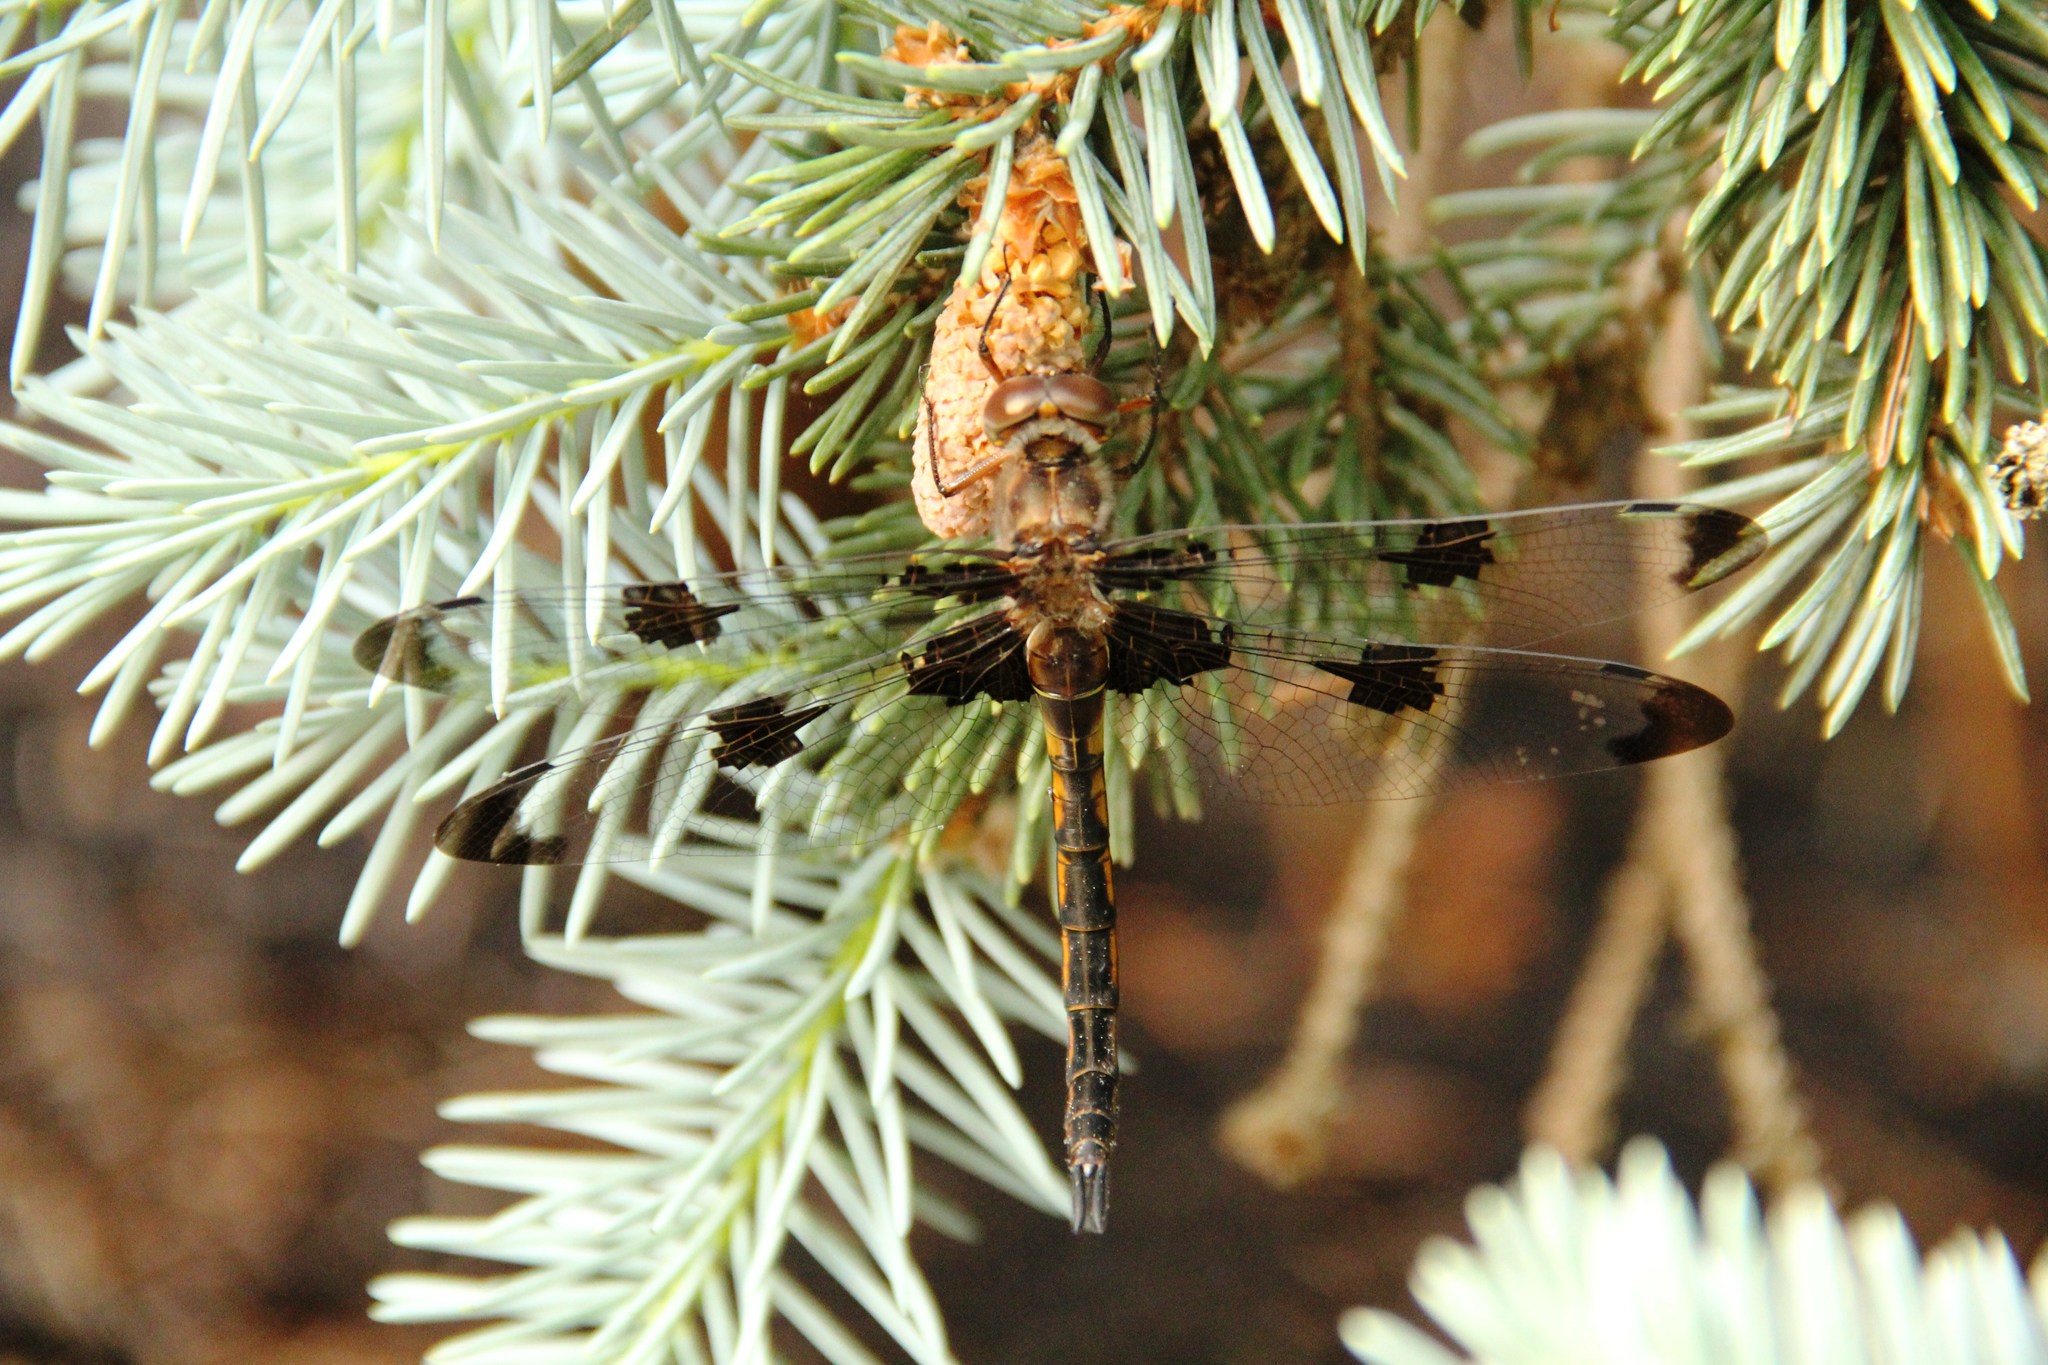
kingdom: Animalia
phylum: Arthropoda
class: Insecta
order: Odonata
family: Corduliidae
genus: Epitheca
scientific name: Epitheca princeps
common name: Prince baskettail
